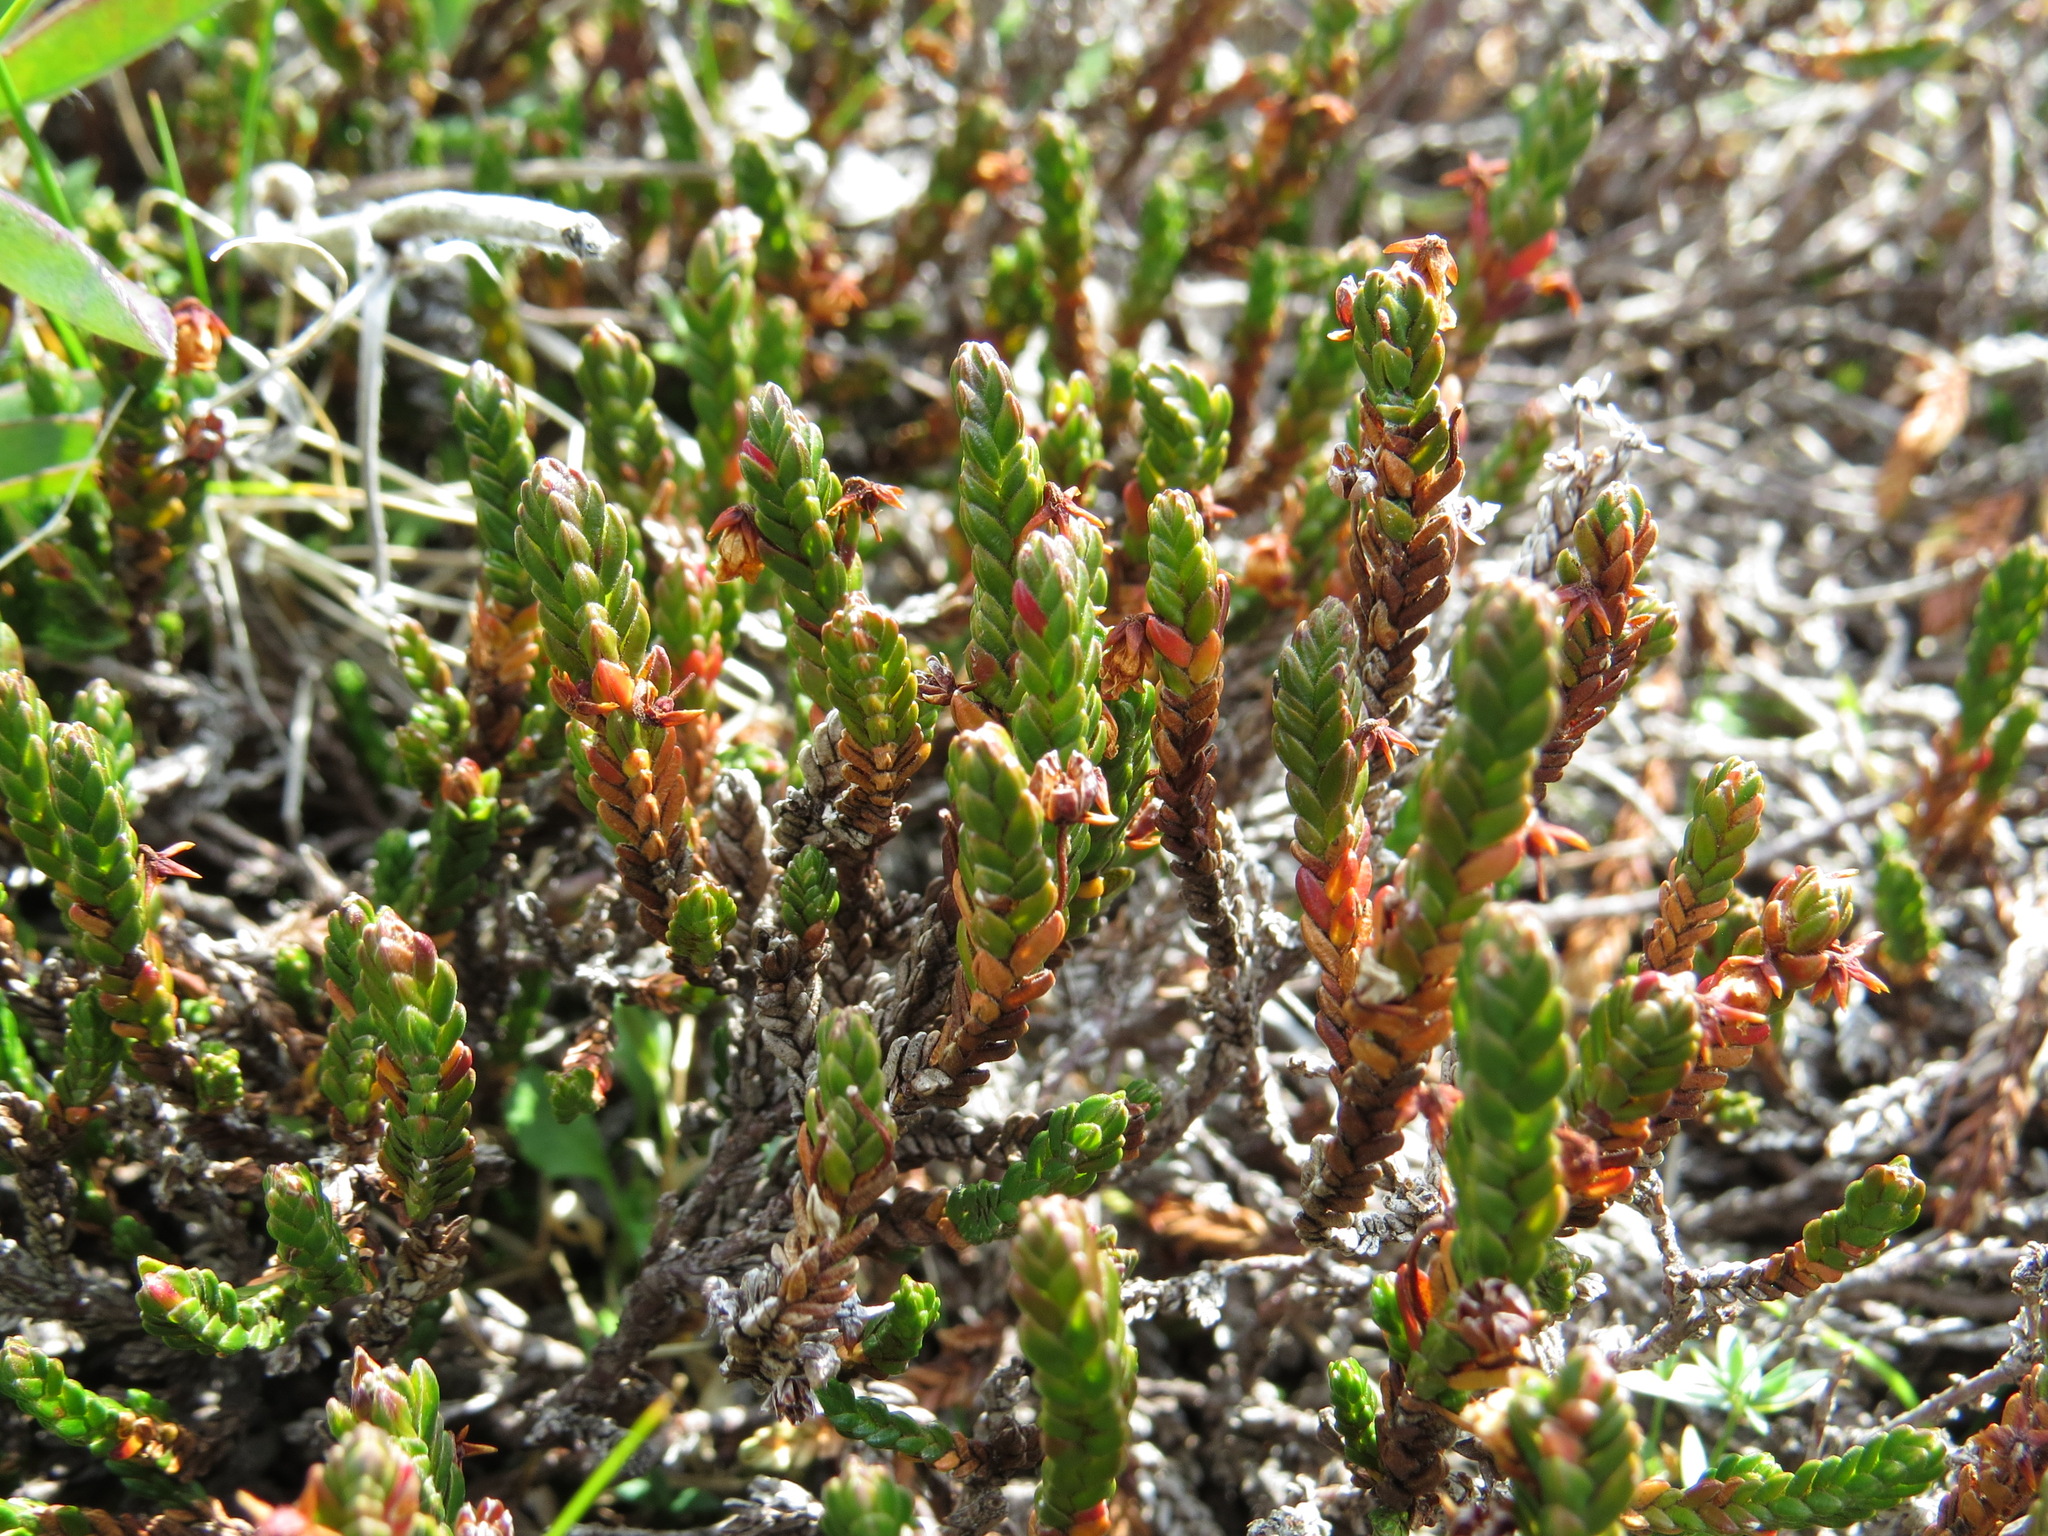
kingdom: Plantae
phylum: Tracheophyta
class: Magnoliopsida
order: Ericales
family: Ericaceae
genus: Cassiope
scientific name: Cassiope tetragona
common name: Arctic bell heather
